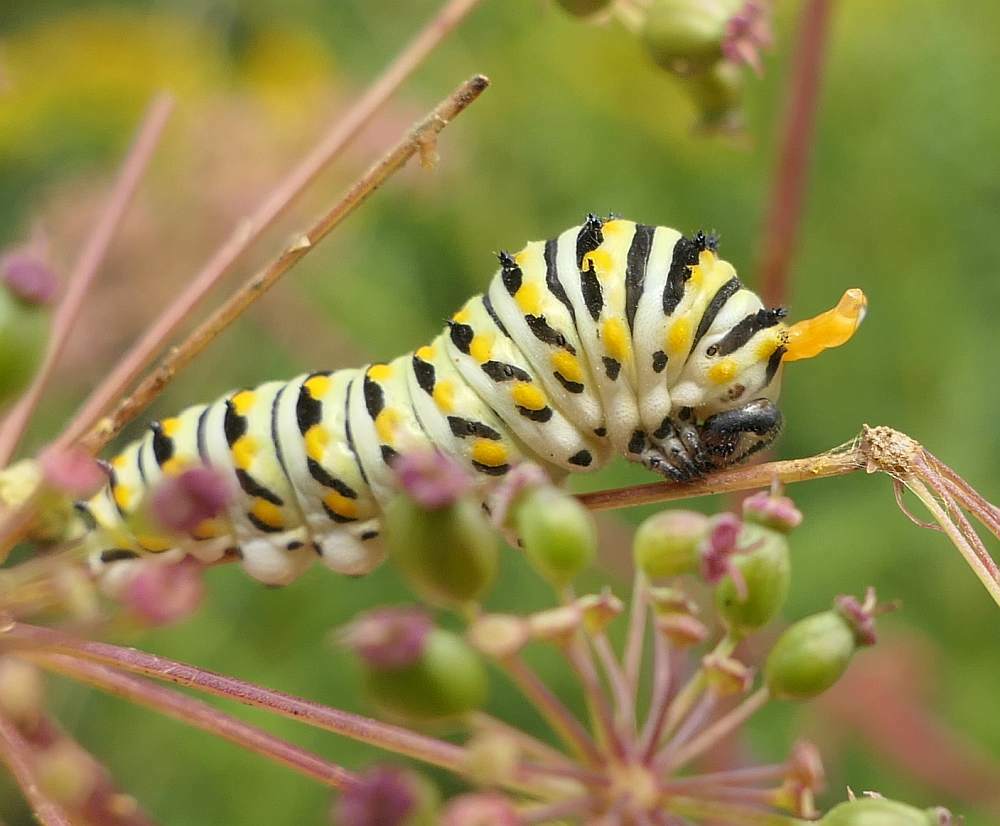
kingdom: Animalia
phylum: Arthropoda
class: Insecta
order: Lepidoptera
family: Papilionidae
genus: Papilio
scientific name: Papilio polyxenes
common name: Black swallowtail
